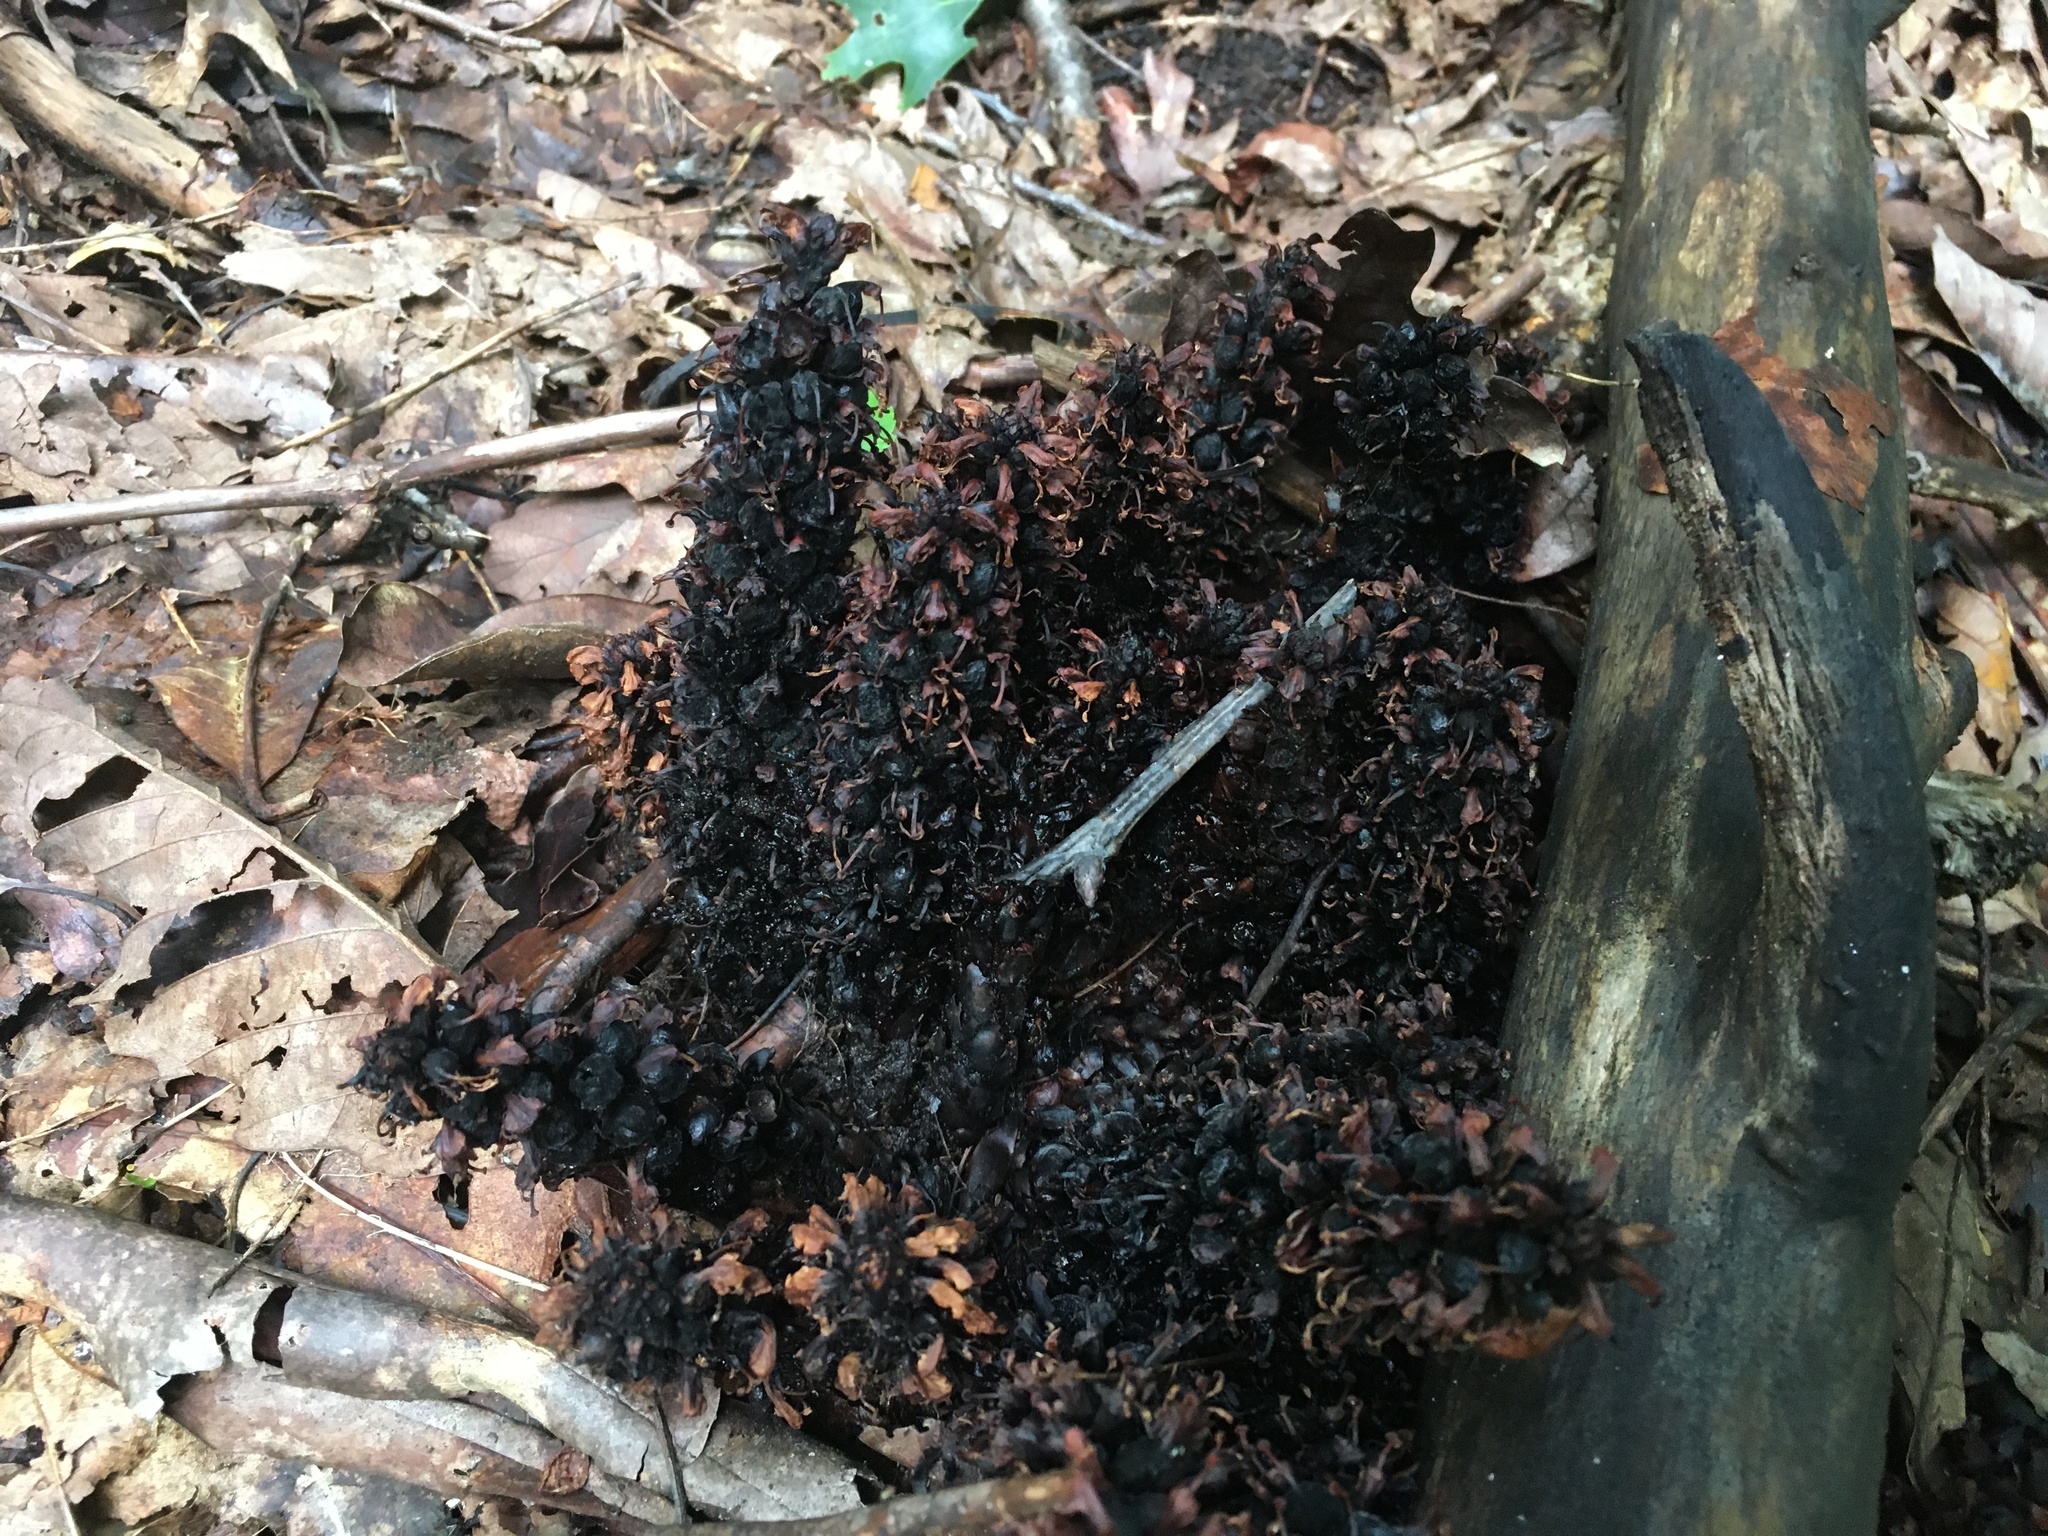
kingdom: Plantae
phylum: Tracheophyta
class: Magnoliopsida
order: Lamiales
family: Orobanchaceae
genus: Conopholis
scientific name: Conopholis americana
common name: American cancer-root
